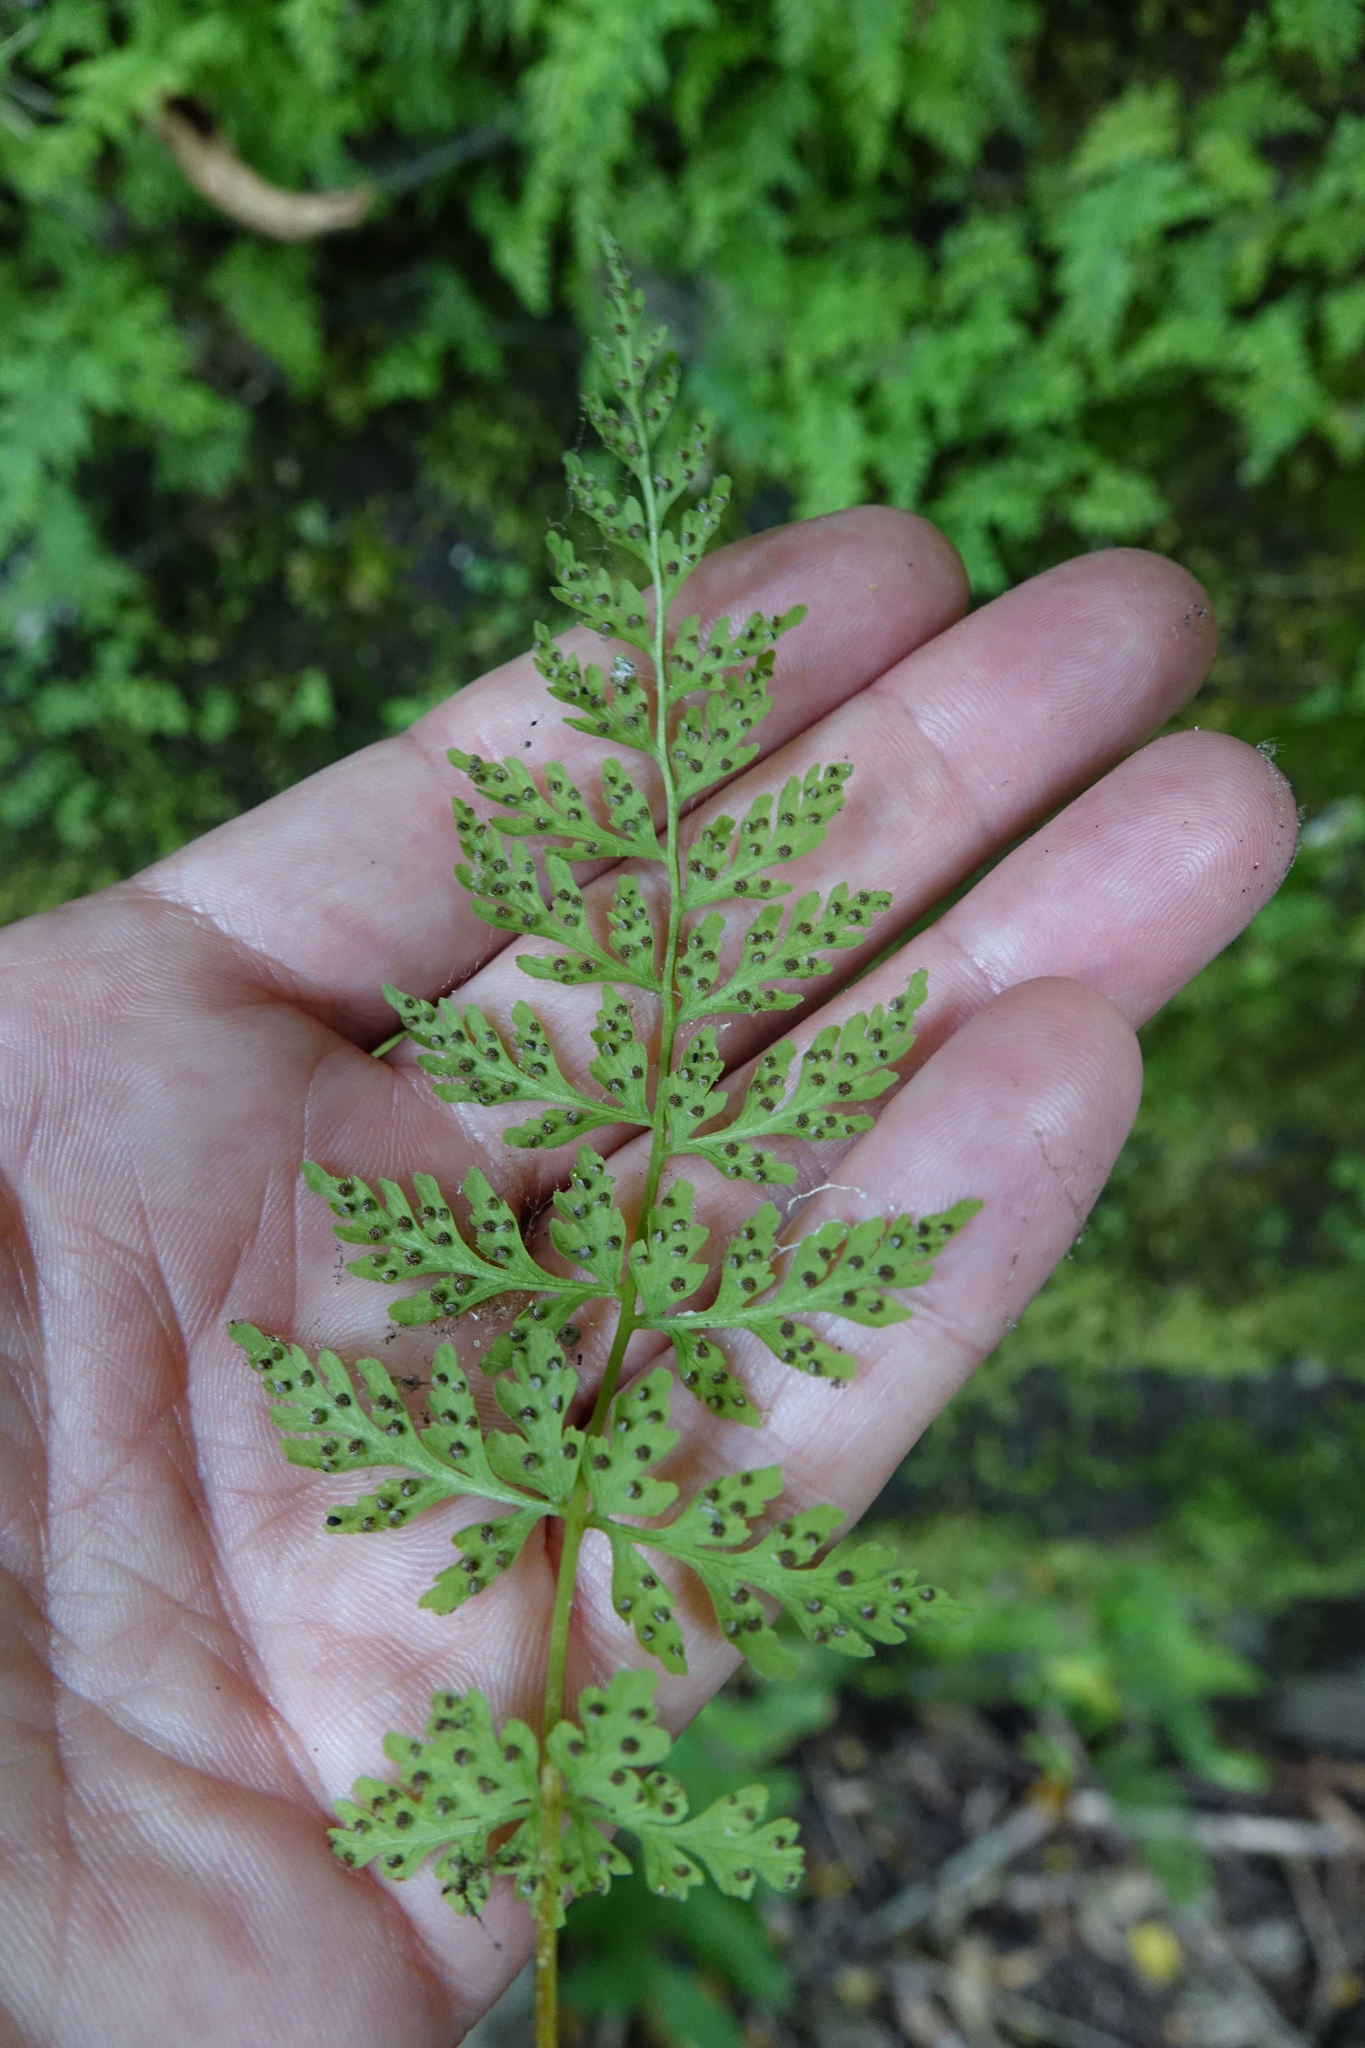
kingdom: Plantae
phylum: Tracheophyta
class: Polypodiopsida
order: Polypodiales
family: Cystopteridaceae
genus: Cystopteris
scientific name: Cystopteris fragilis
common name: Brittle bladder fern
